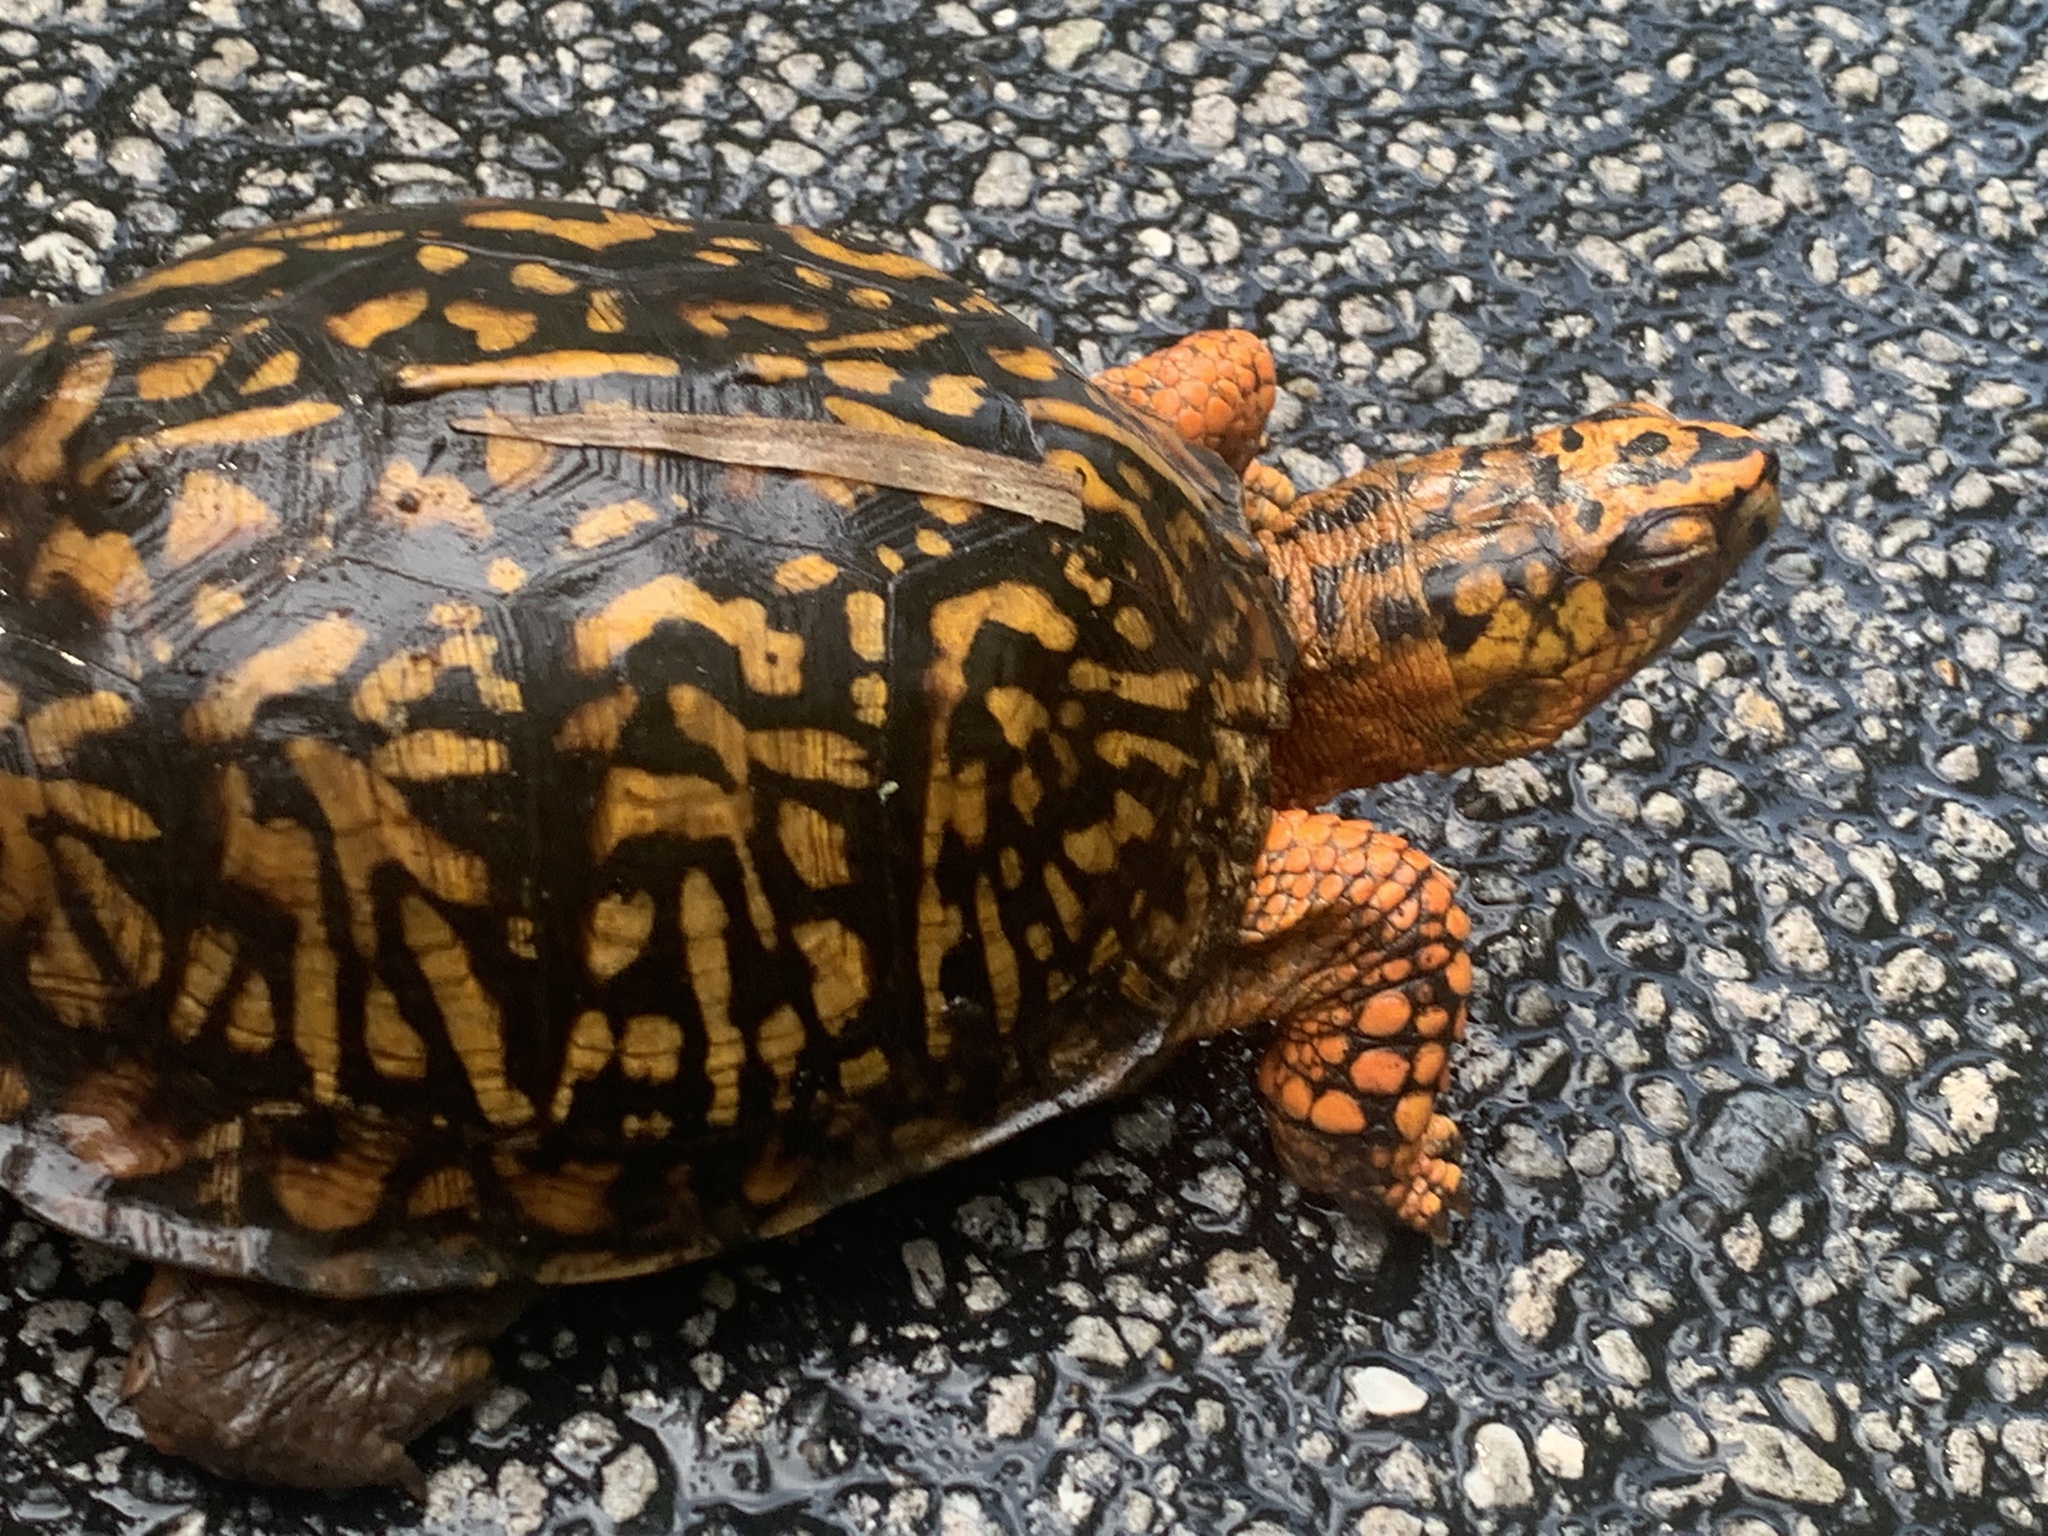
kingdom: Animalia
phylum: Chordata
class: Testudines
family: Emydidae
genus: Terrapene
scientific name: Terrapene carolina
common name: Common box turtle
